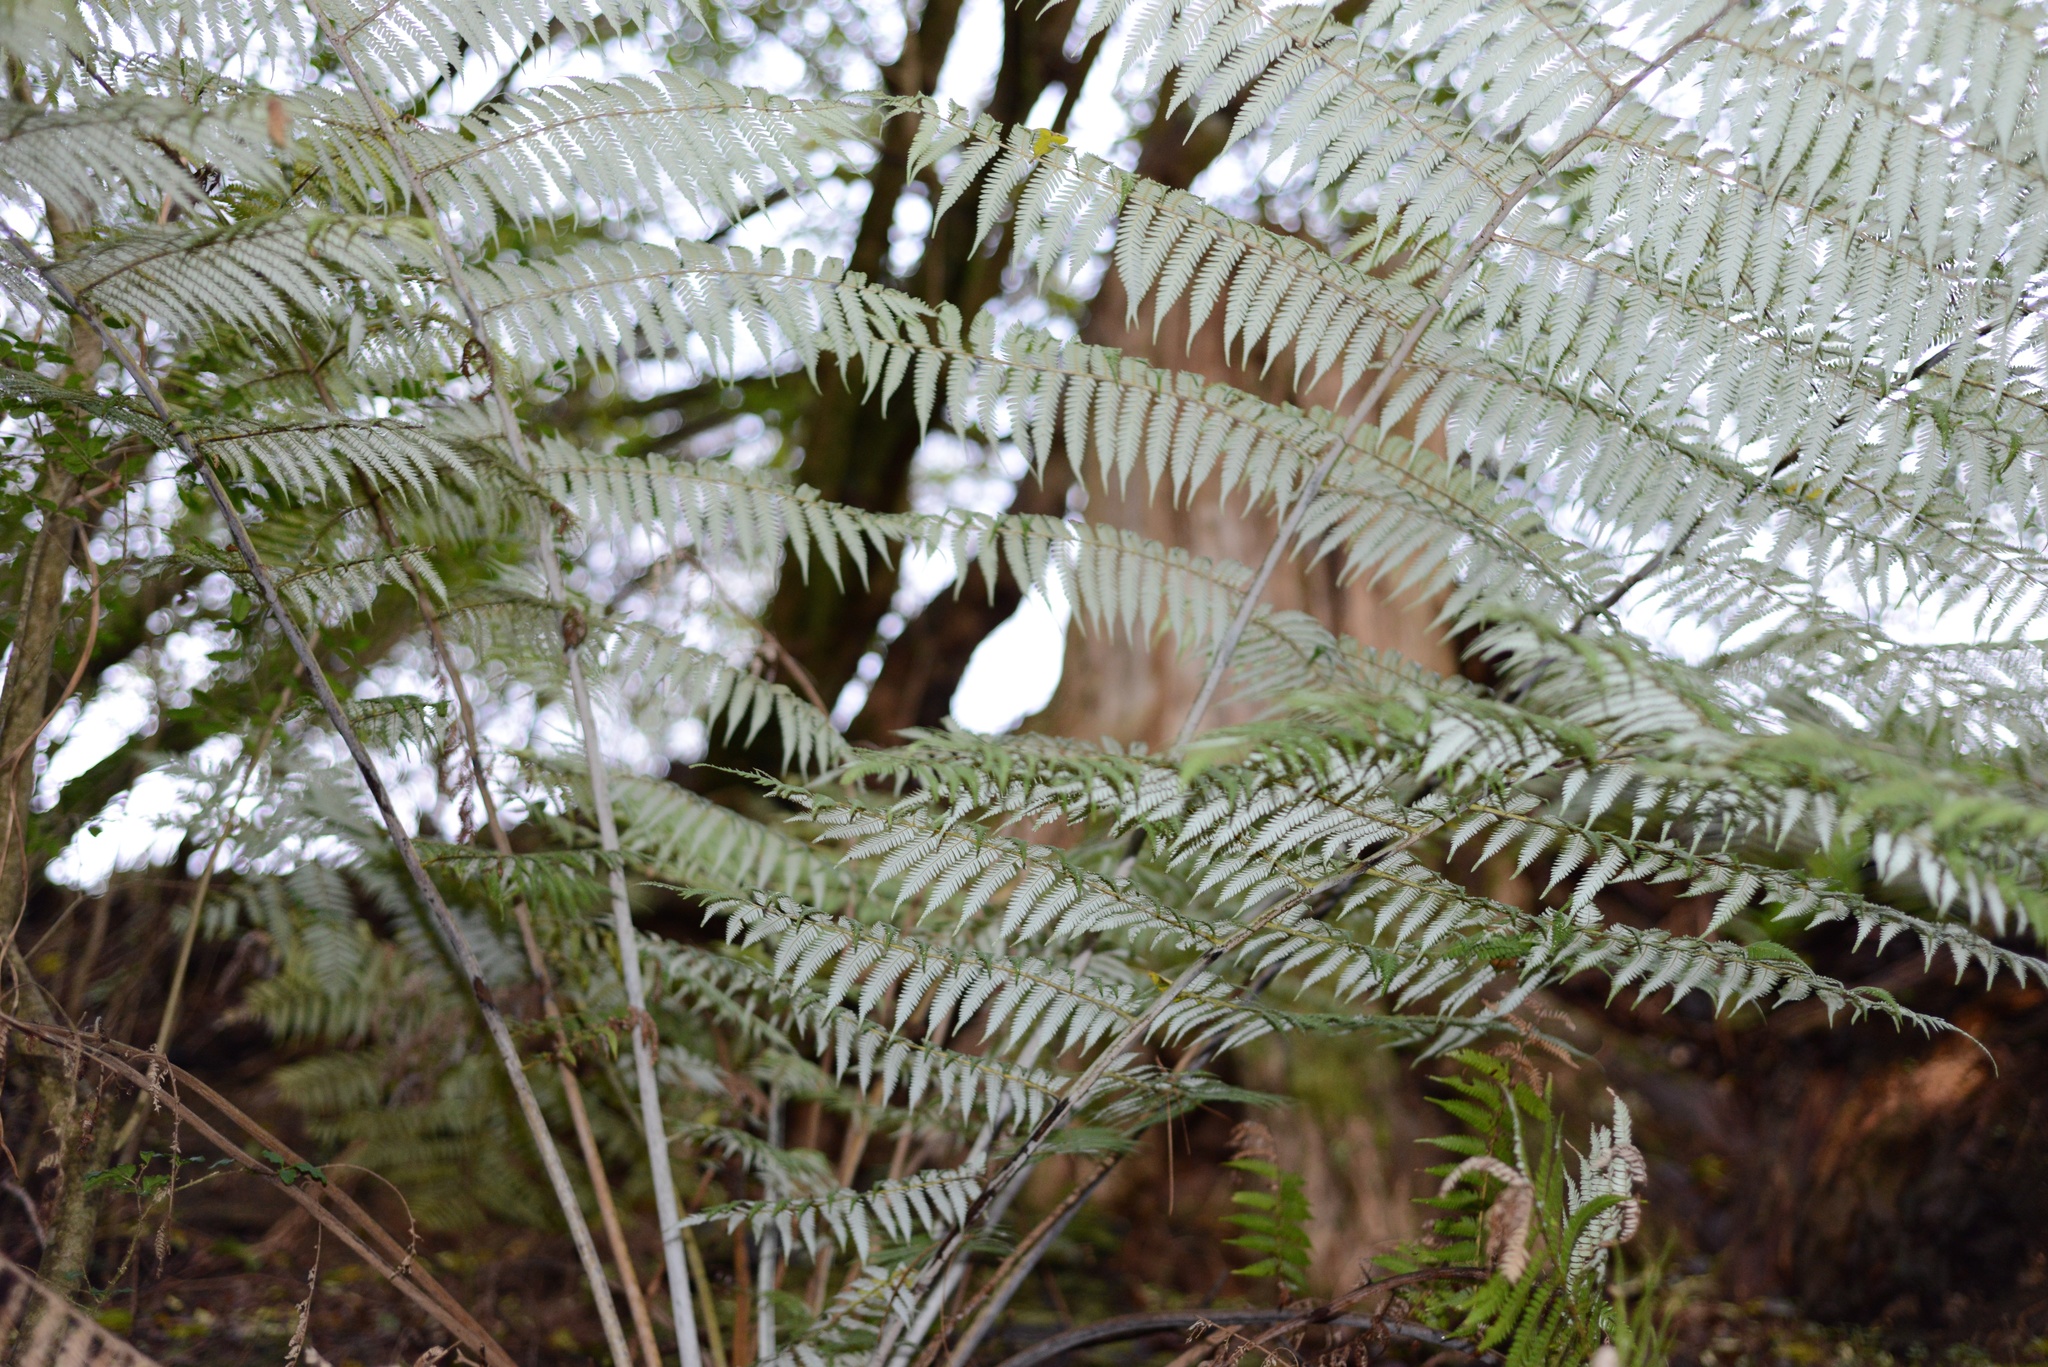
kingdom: Plantae
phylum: Tracheophyta
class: Polypodiopsida
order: Cyatheales
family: Cyatheaceae
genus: Alsophila
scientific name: Alsophila dealbata
